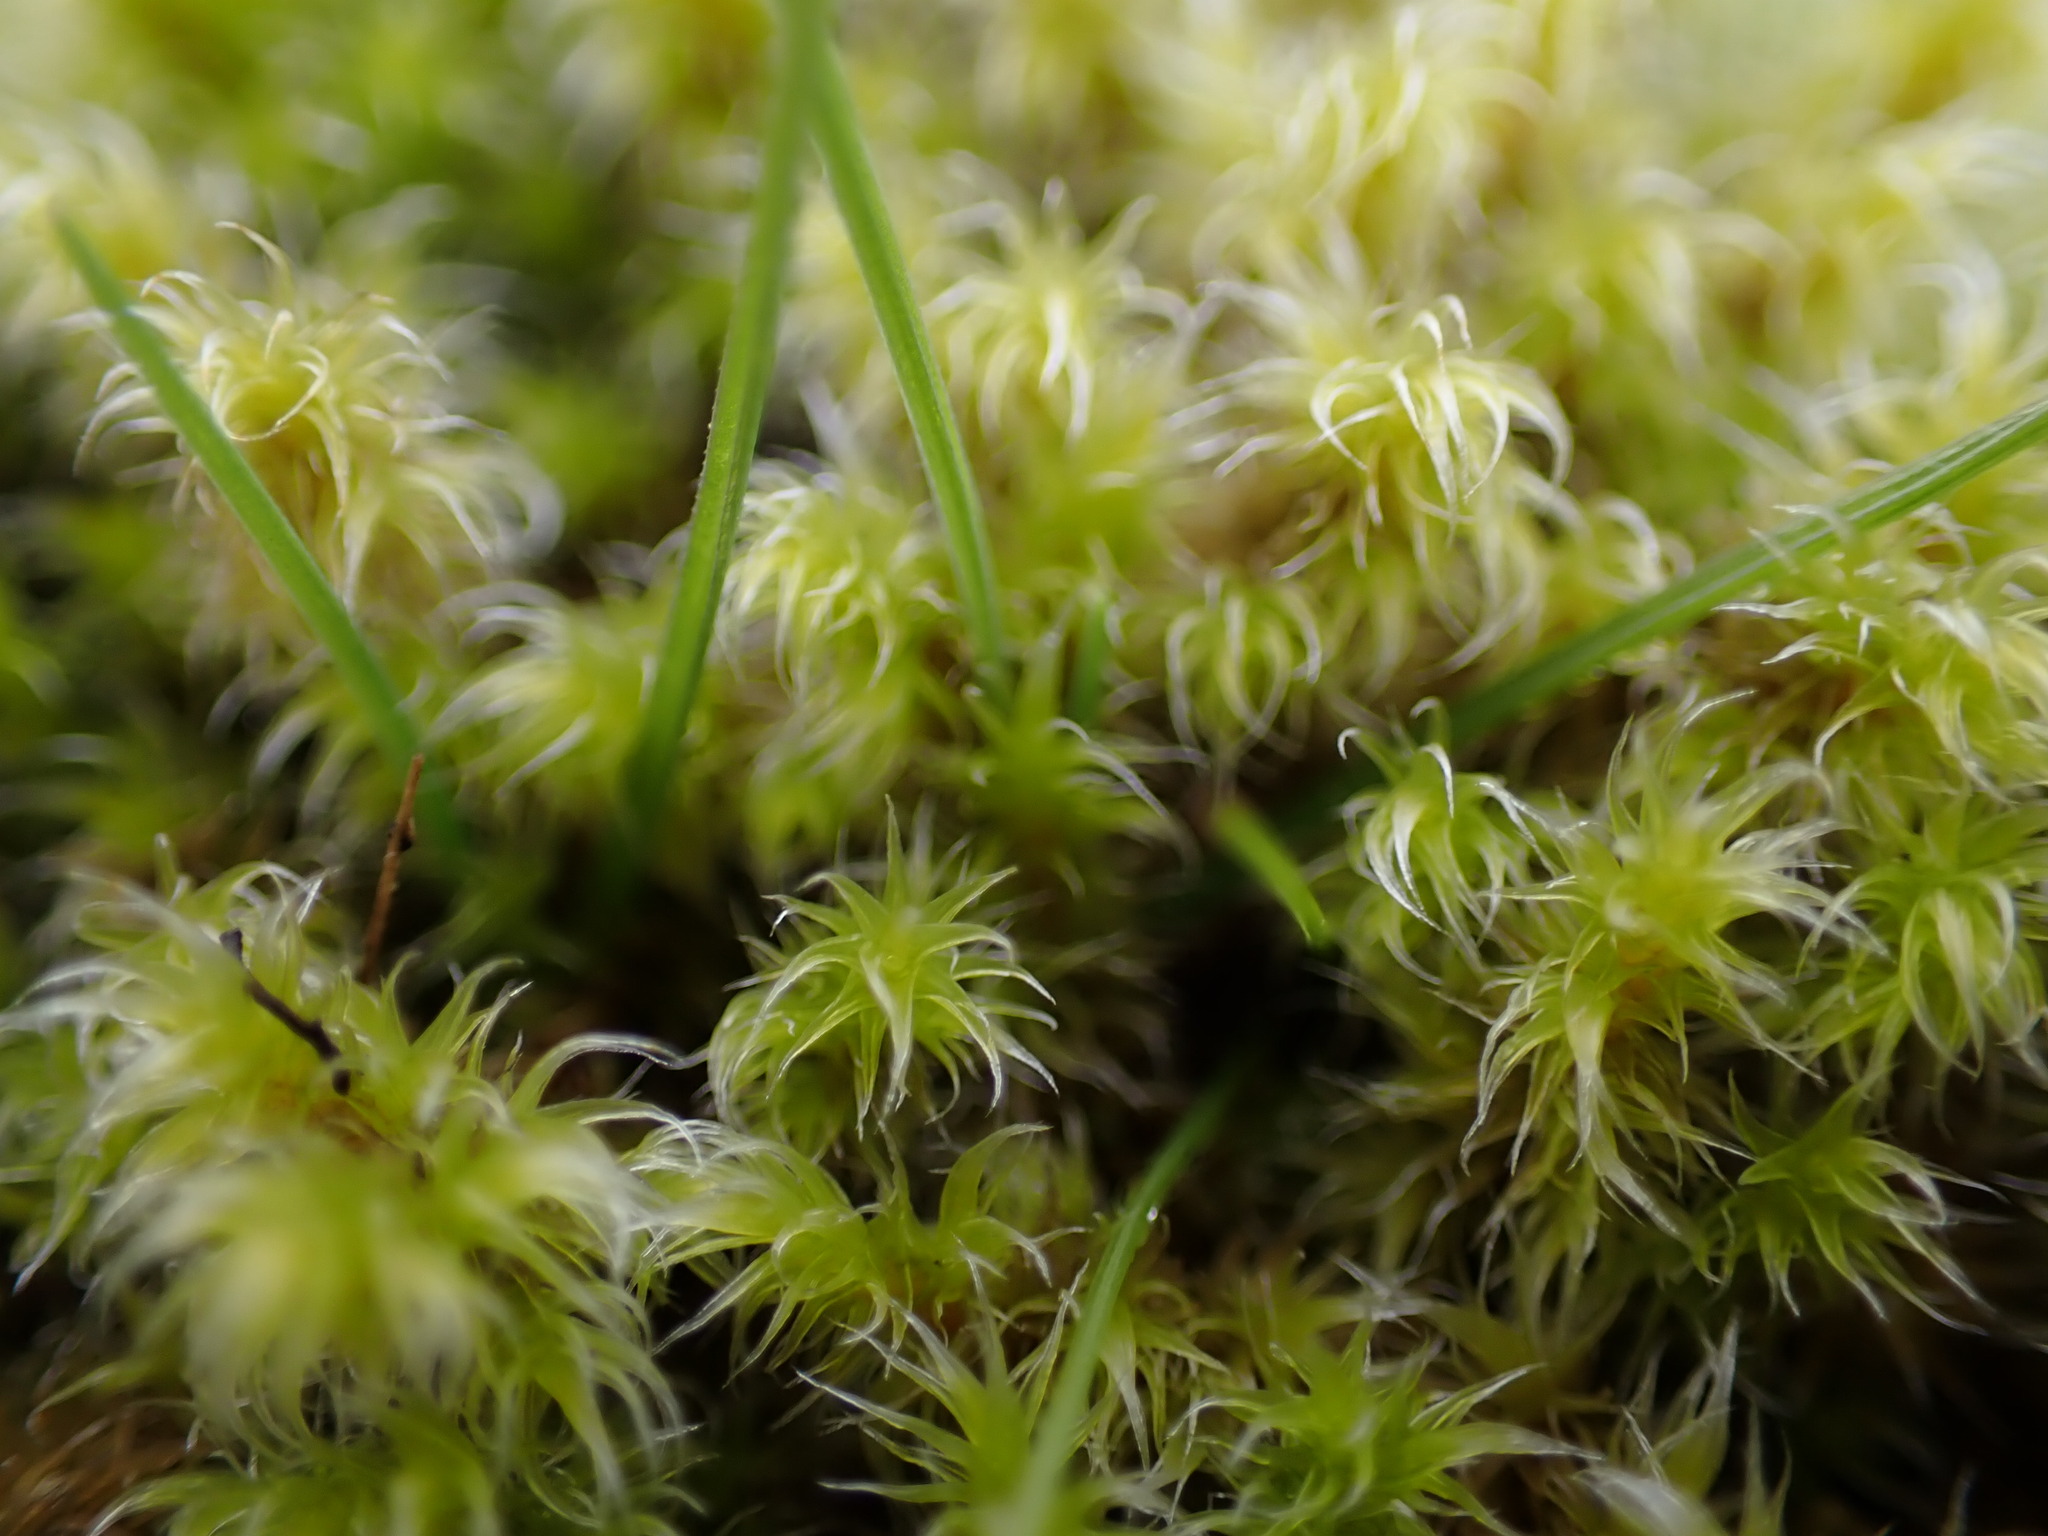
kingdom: Plantae
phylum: Bryophyta
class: Bryopsida
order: Grimmiales
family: Grimmiaceae
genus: Niphotrichum
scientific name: Niphotrichum elongatum
